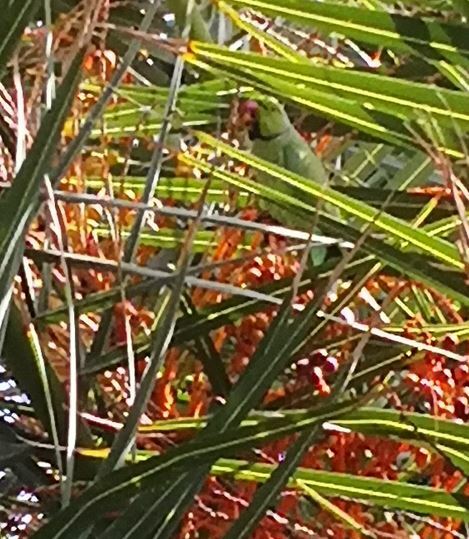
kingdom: Animalia
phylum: Chordata
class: Aves
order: Psittaciformes
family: Psittacidae
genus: Psittacula
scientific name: Psittacula krameri
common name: Rose-ringed parakeet
